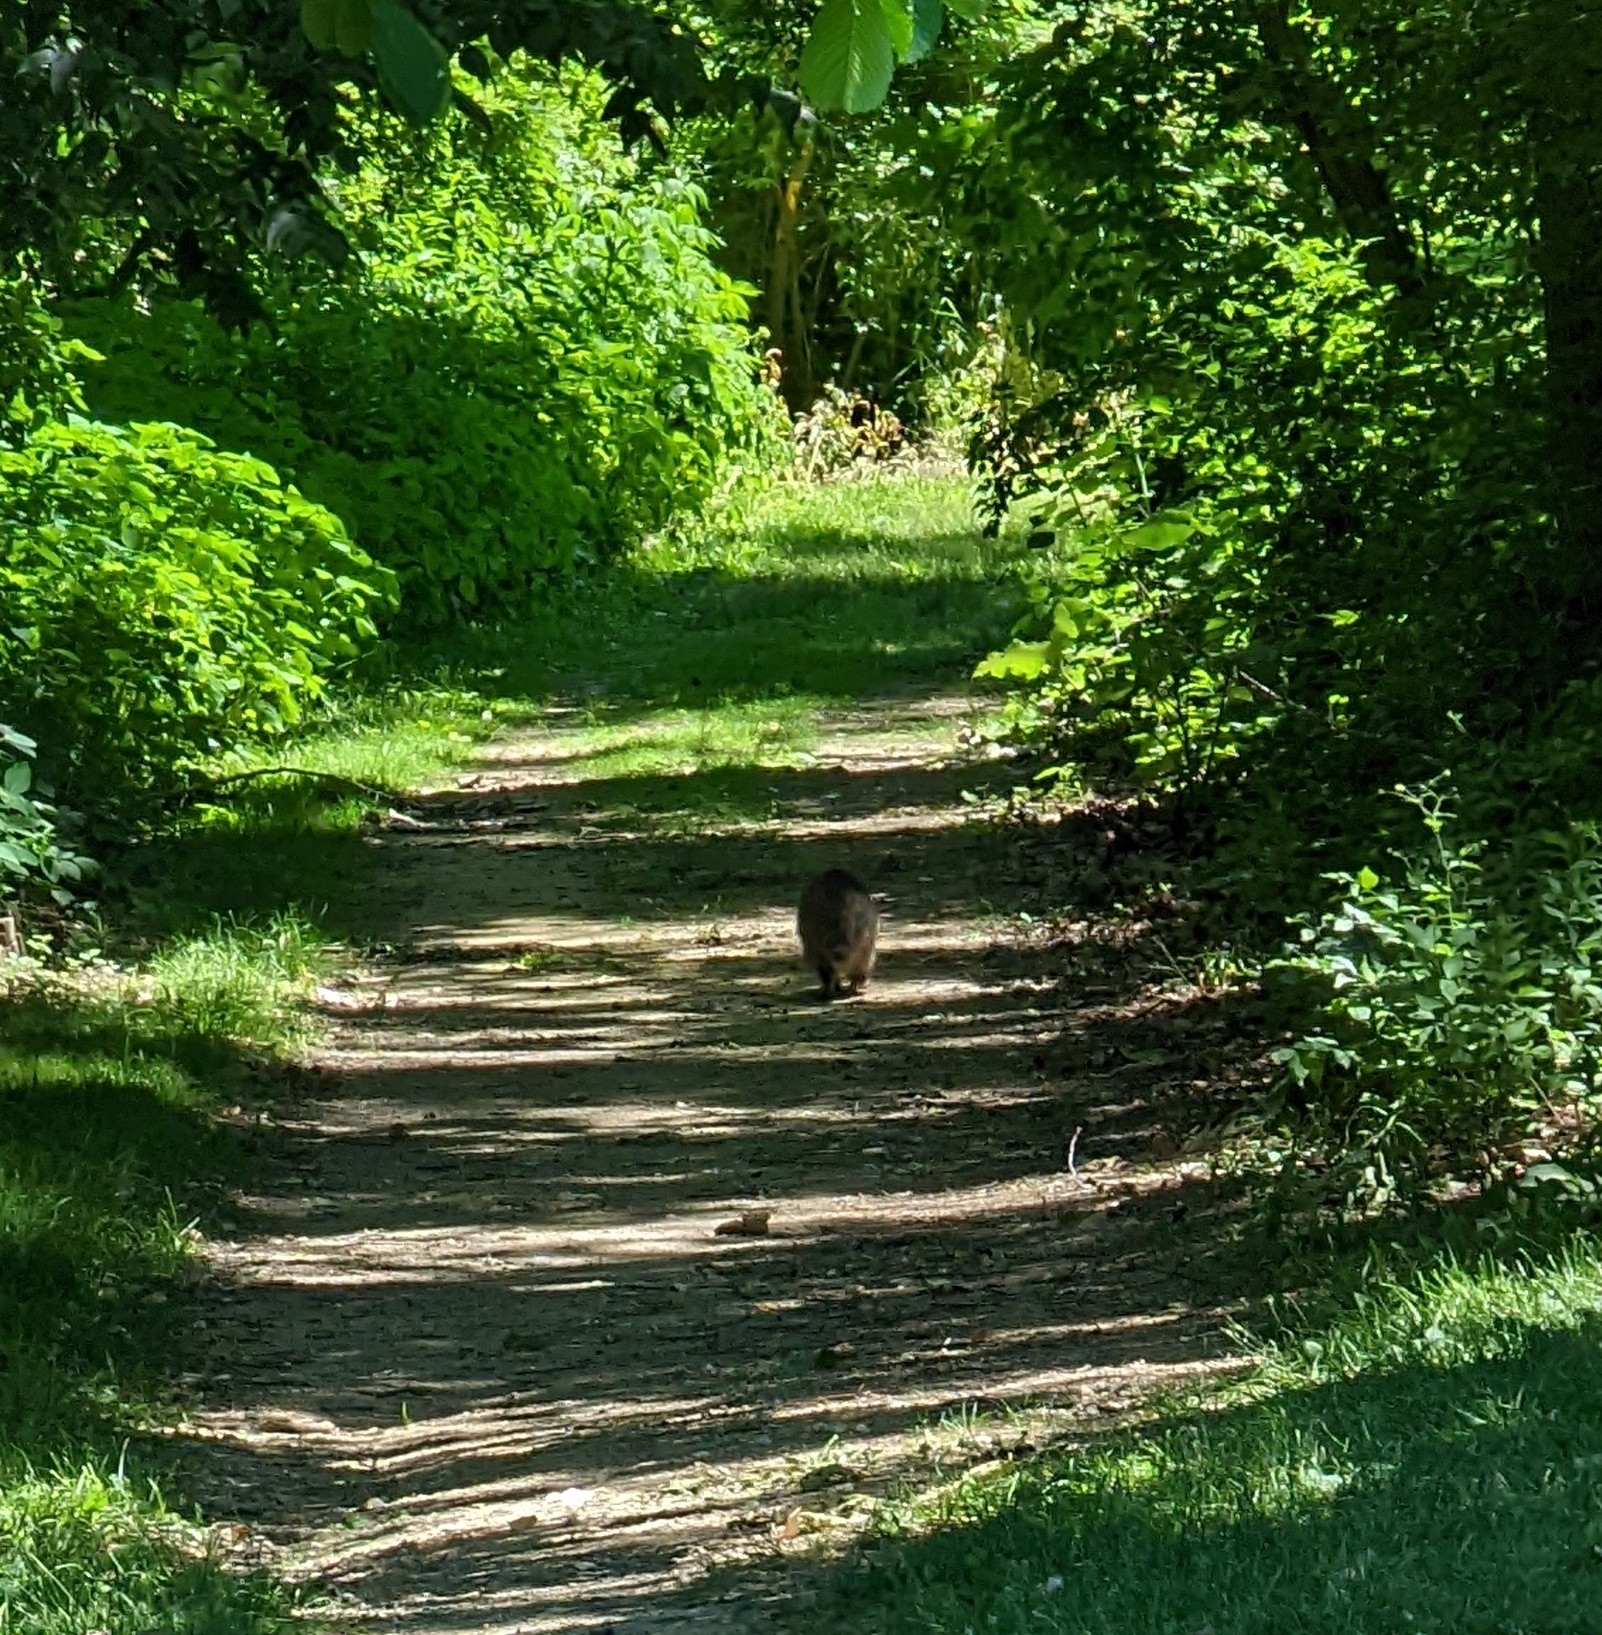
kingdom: Animalia
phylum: Chordata
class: Mammalia
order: Carnivora
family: Procyonidae
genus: Procyon
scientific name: Procyon lotor
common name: Raccoon
